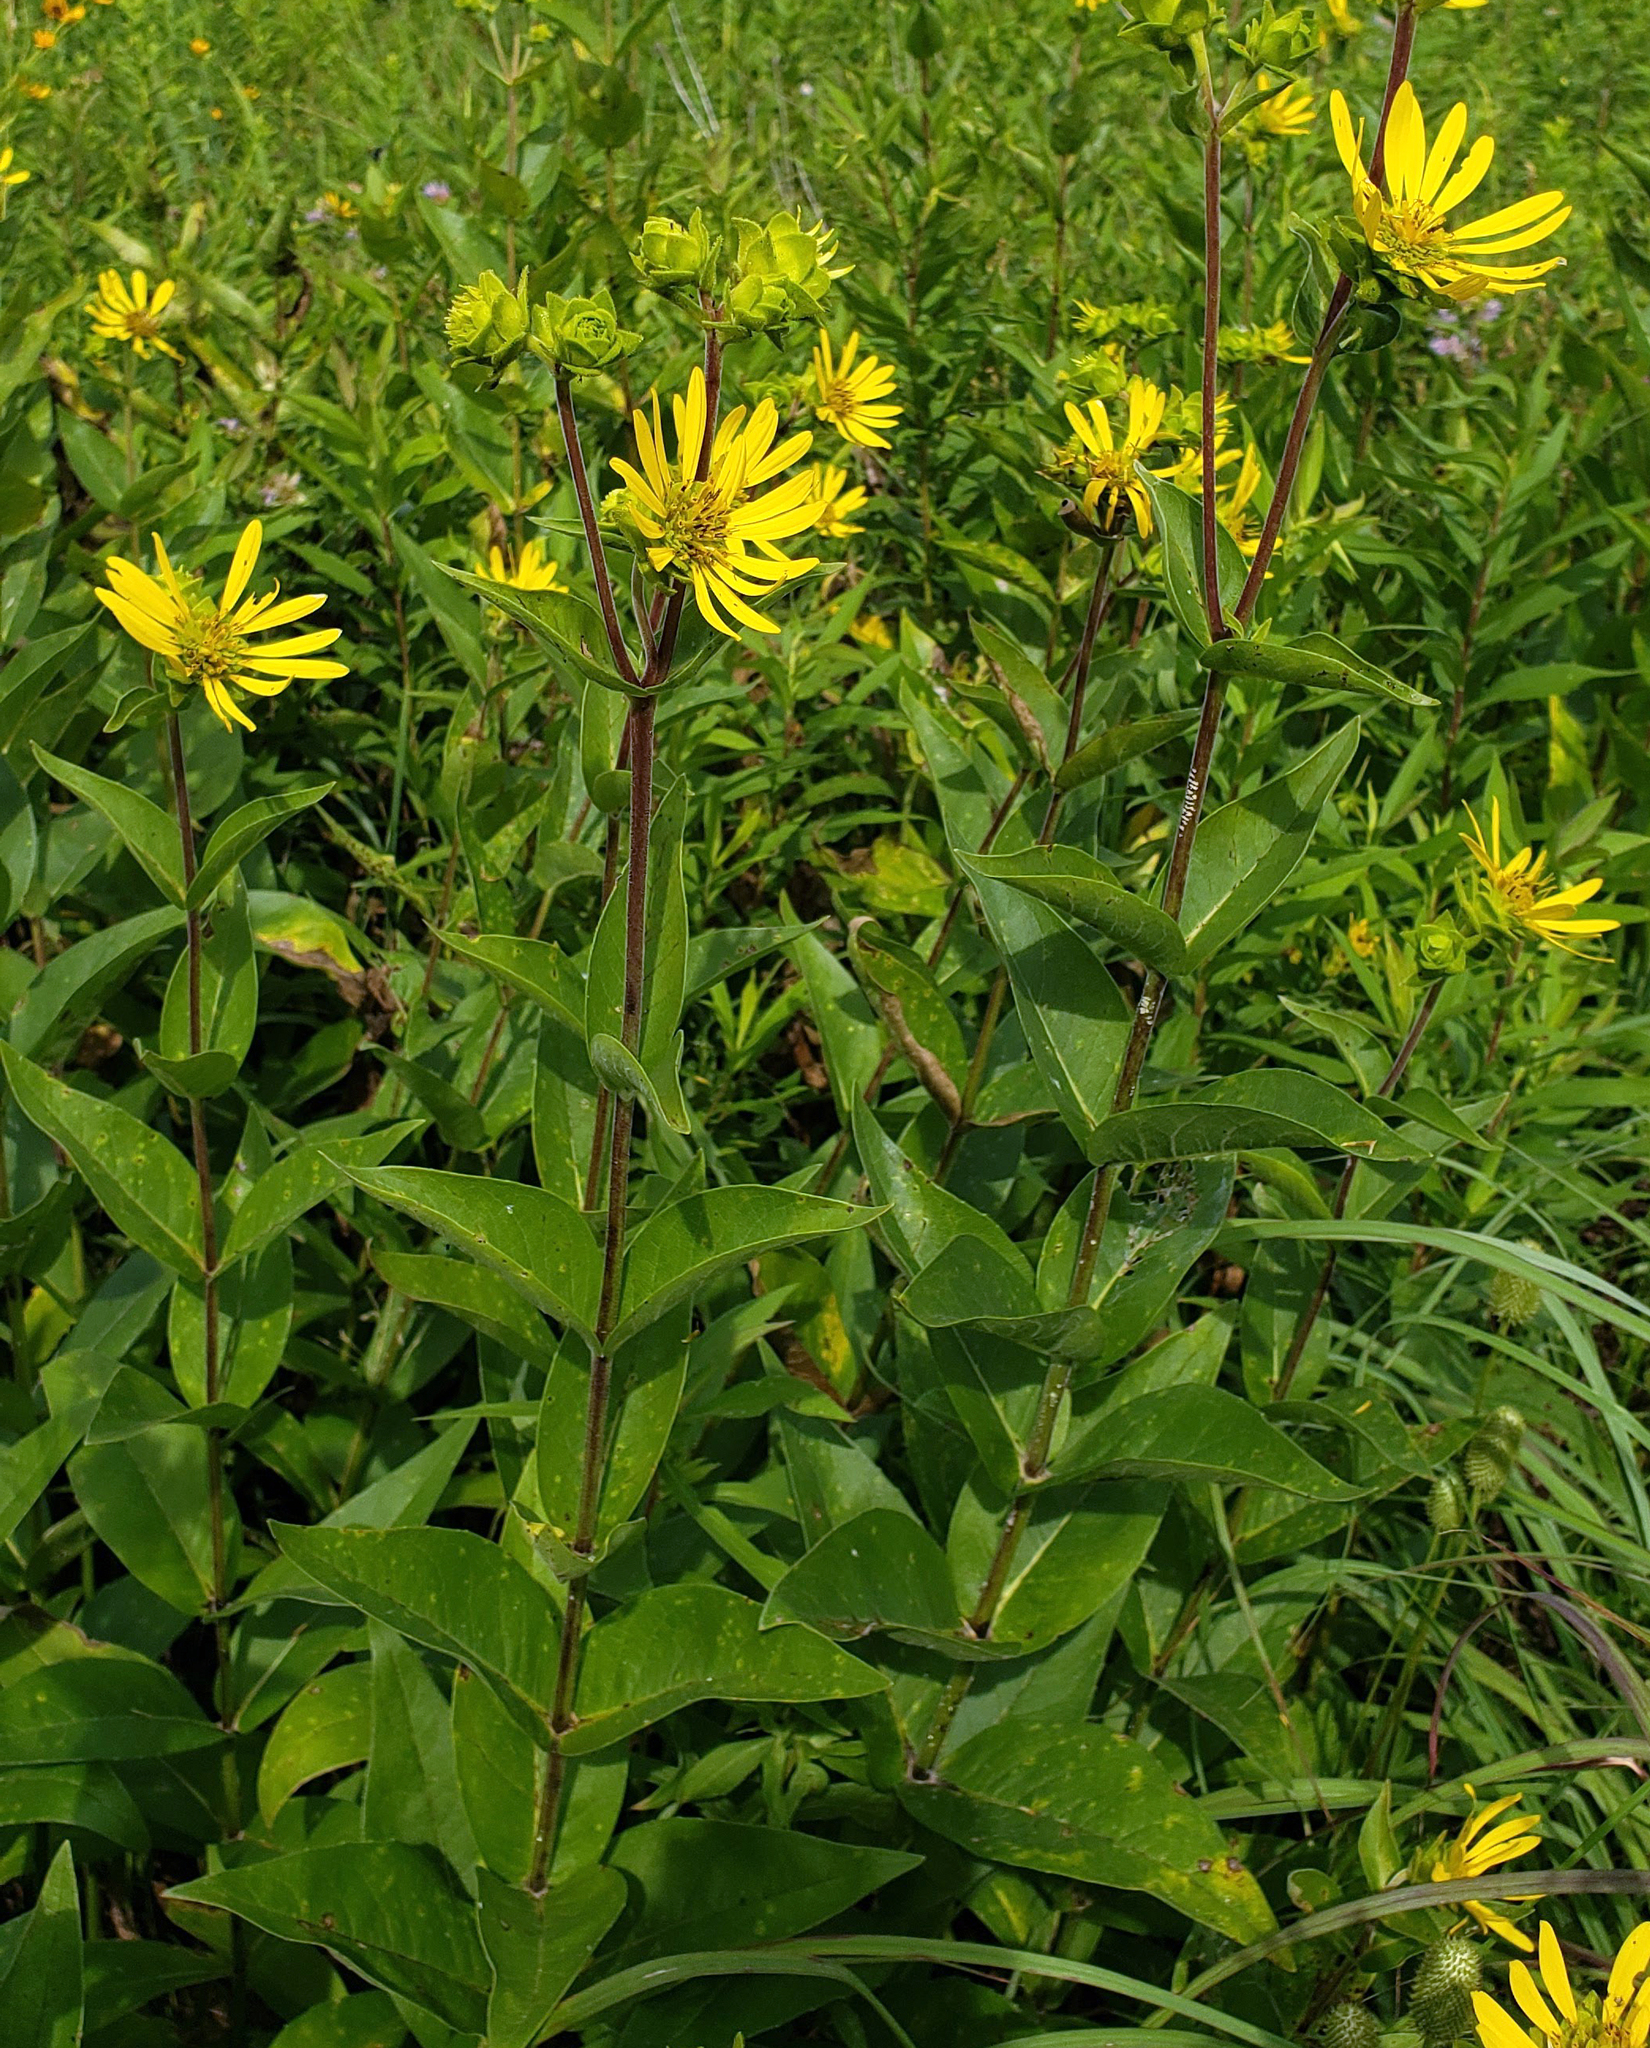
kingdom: Plantae
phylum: Tracheophyta
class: Magnoliopsida
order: Asterales
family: Asteraceae
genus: Silphium
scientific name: Silphium integrifolium
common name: Whole-leaf rosinweed
